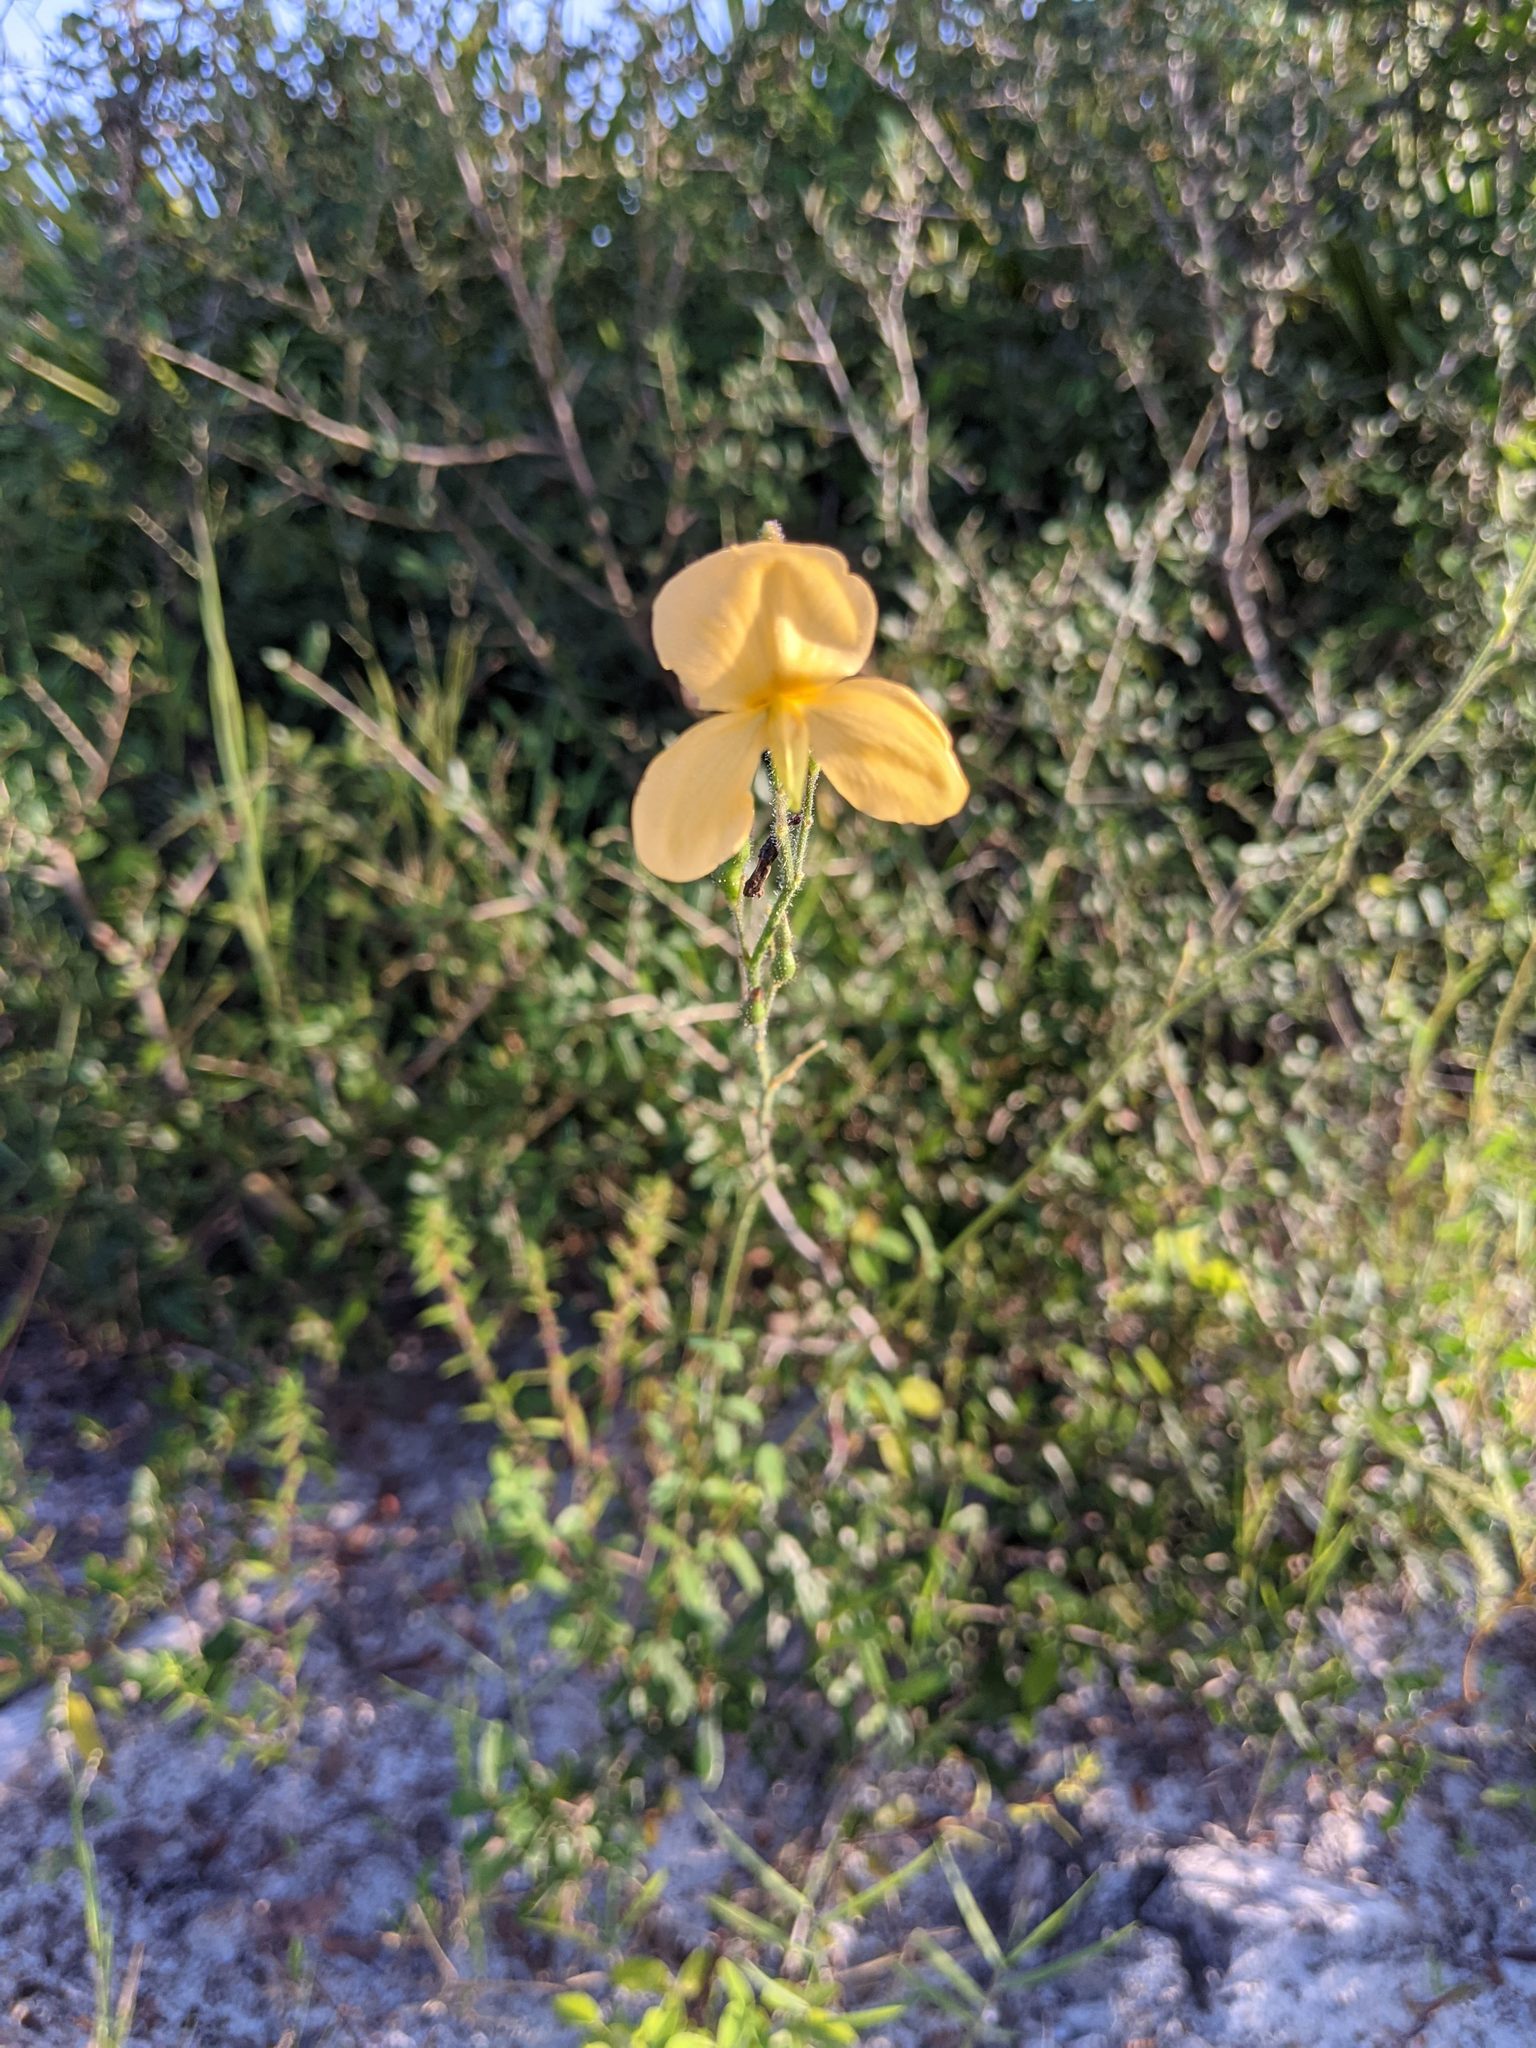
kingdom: Plantae
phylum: Tracheophyta
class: Magnoliopsida
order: Fabales
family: Fabaceae
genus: Chapmannia
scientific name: Chapmannia floridana
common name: Alicia
